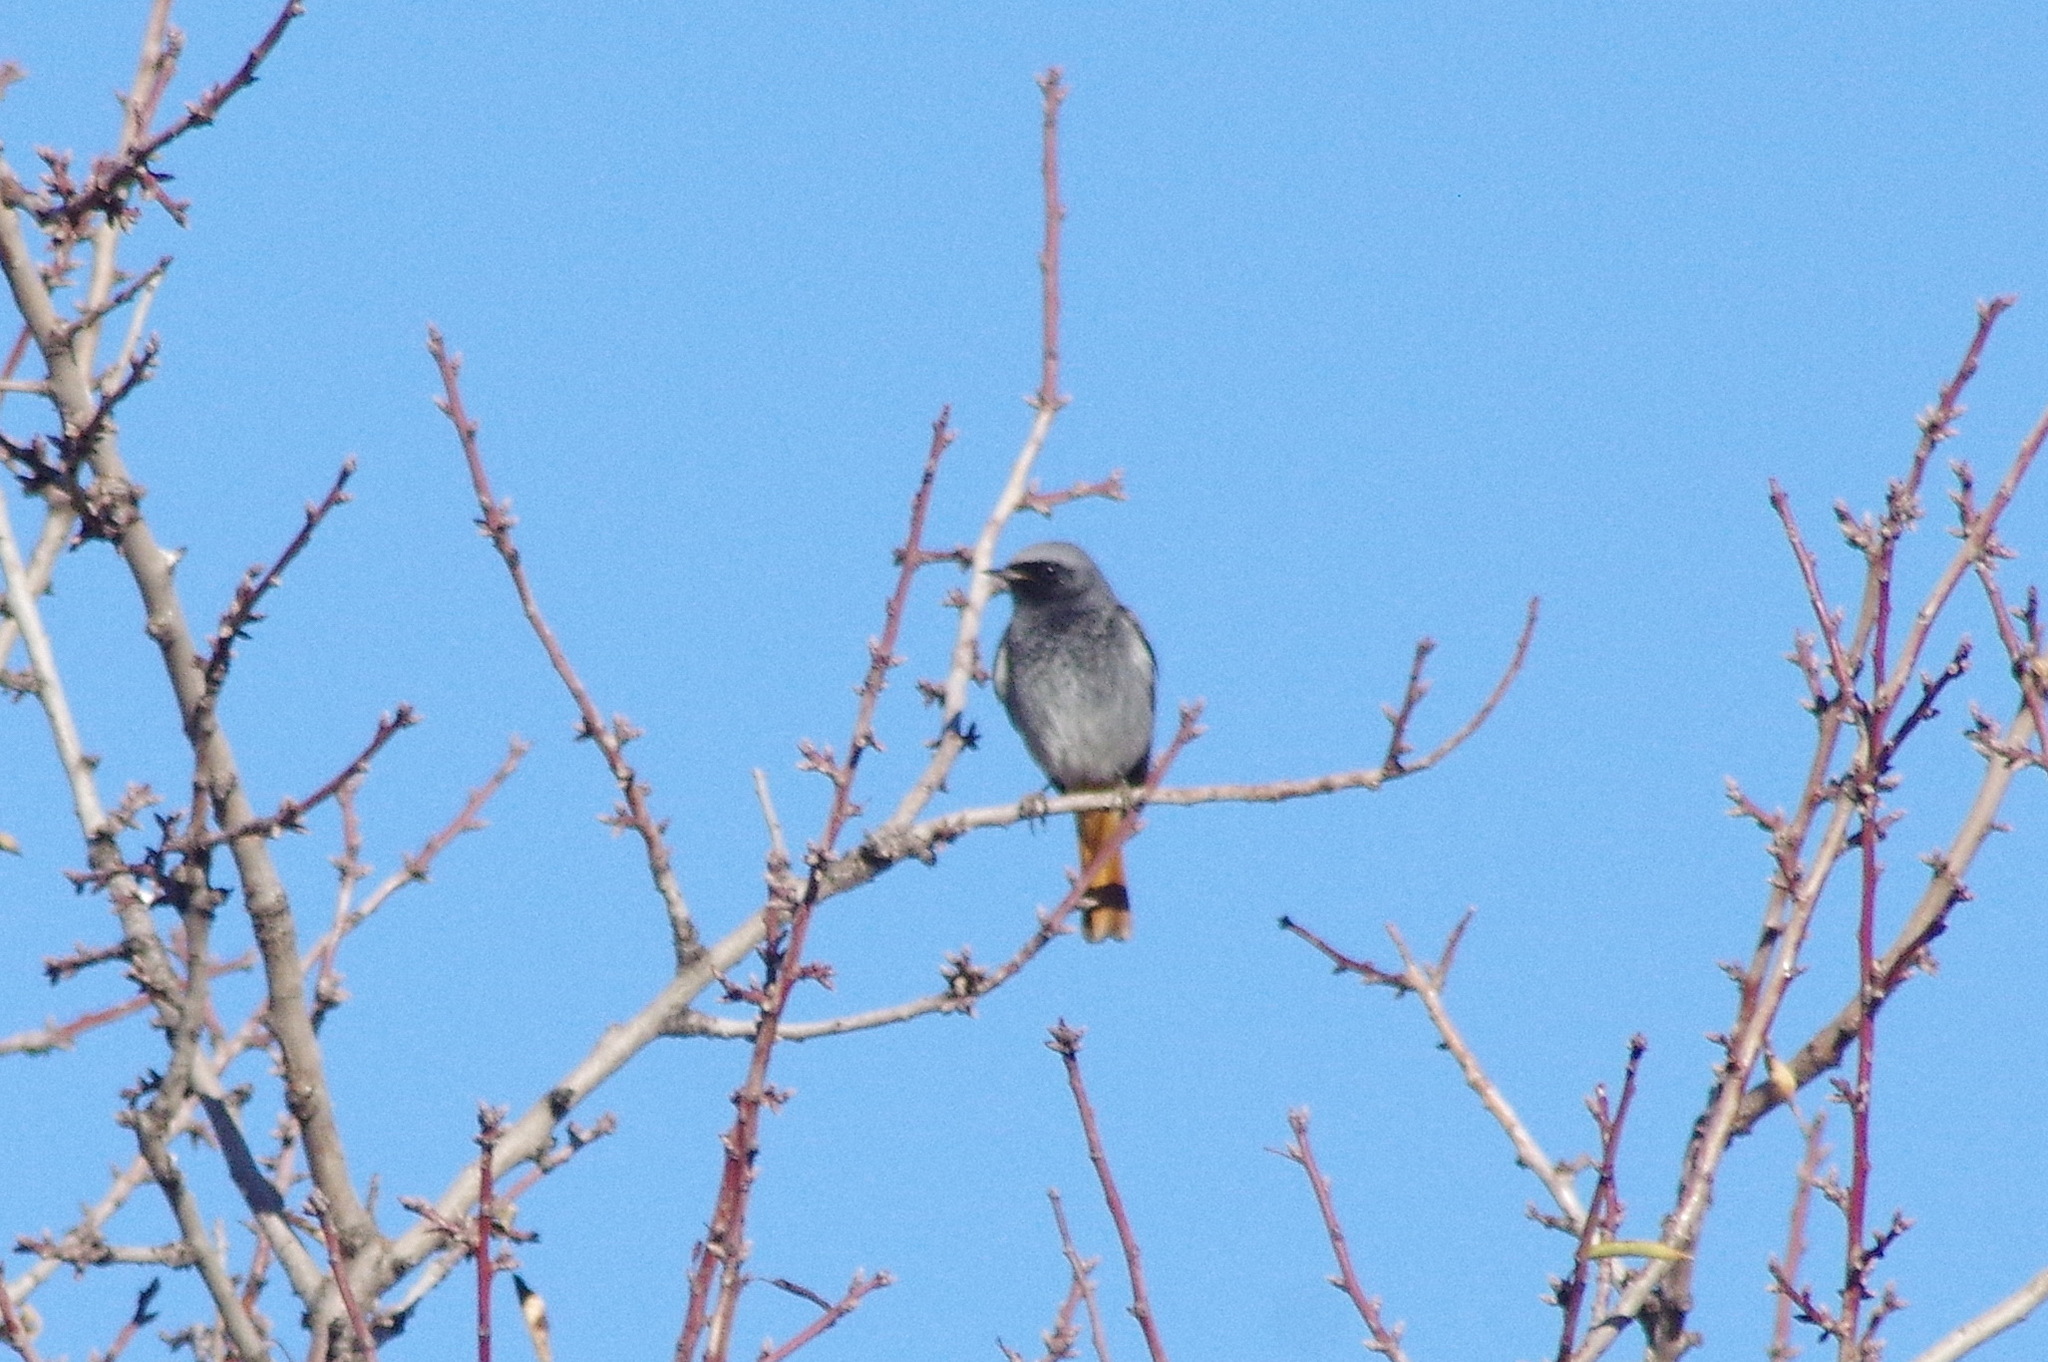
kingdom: Animalia
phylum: Chordata
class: Aves
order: Passeriformes
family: Muscicapidae
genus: Phoenicurus
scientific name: Phoenicurus ochruros
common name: Black redstart
